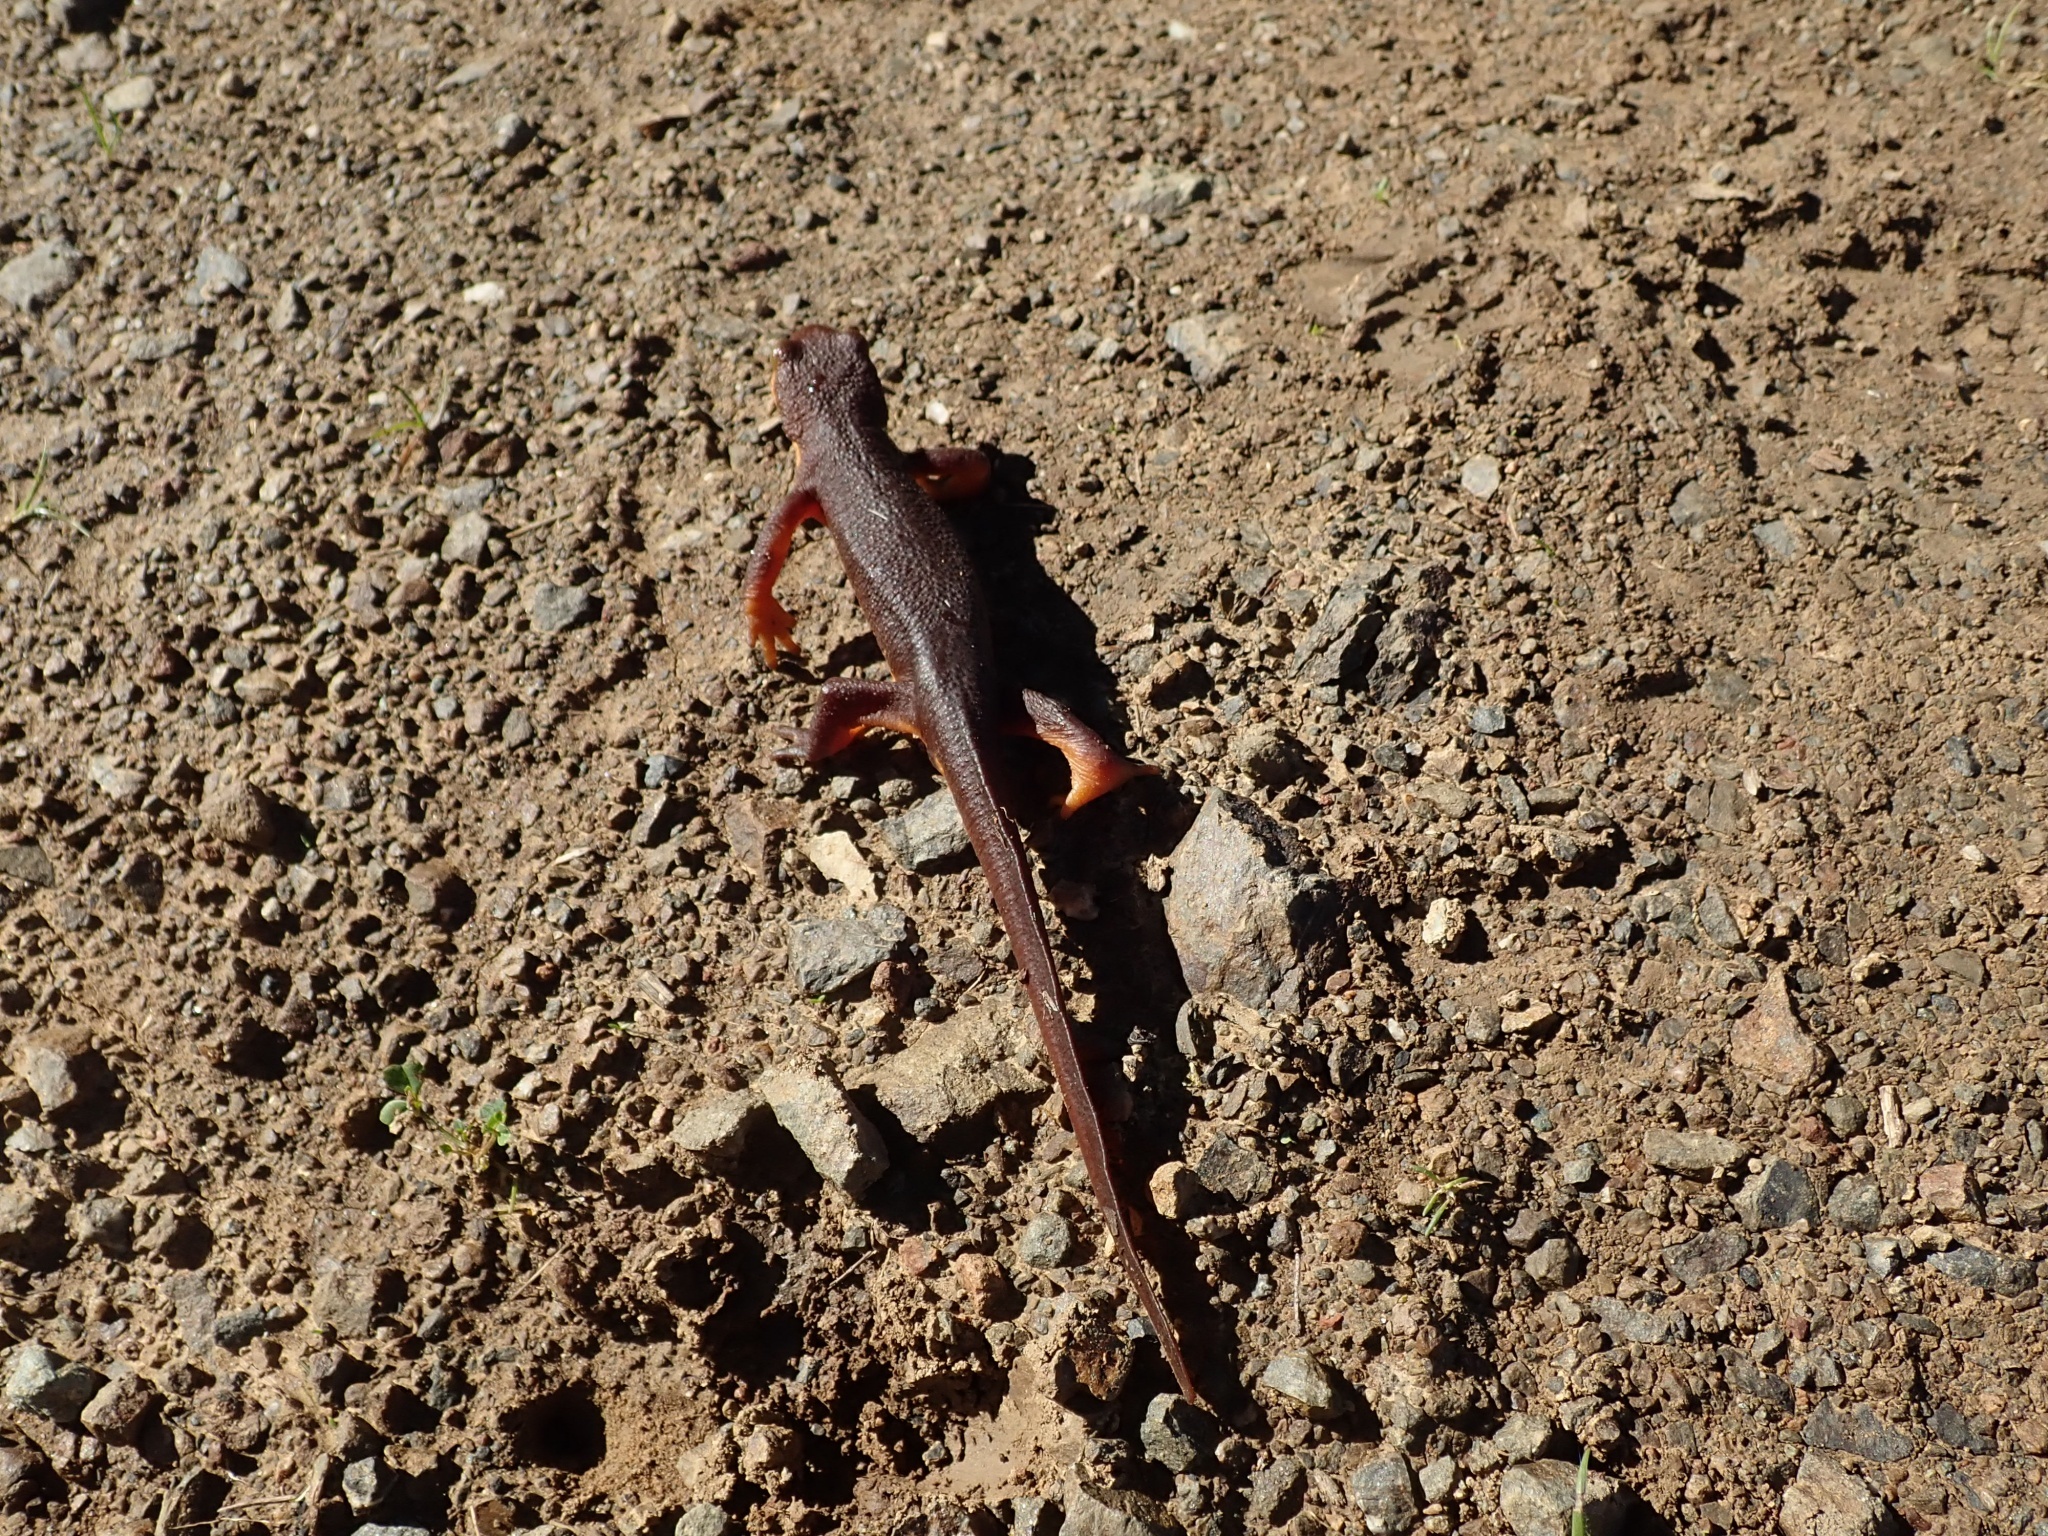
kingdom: Animalia
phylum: Chordata
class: Amphibia
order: Caudata
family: Salamandridae
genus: Taricha
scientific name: Taricha torosa
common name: California newt
